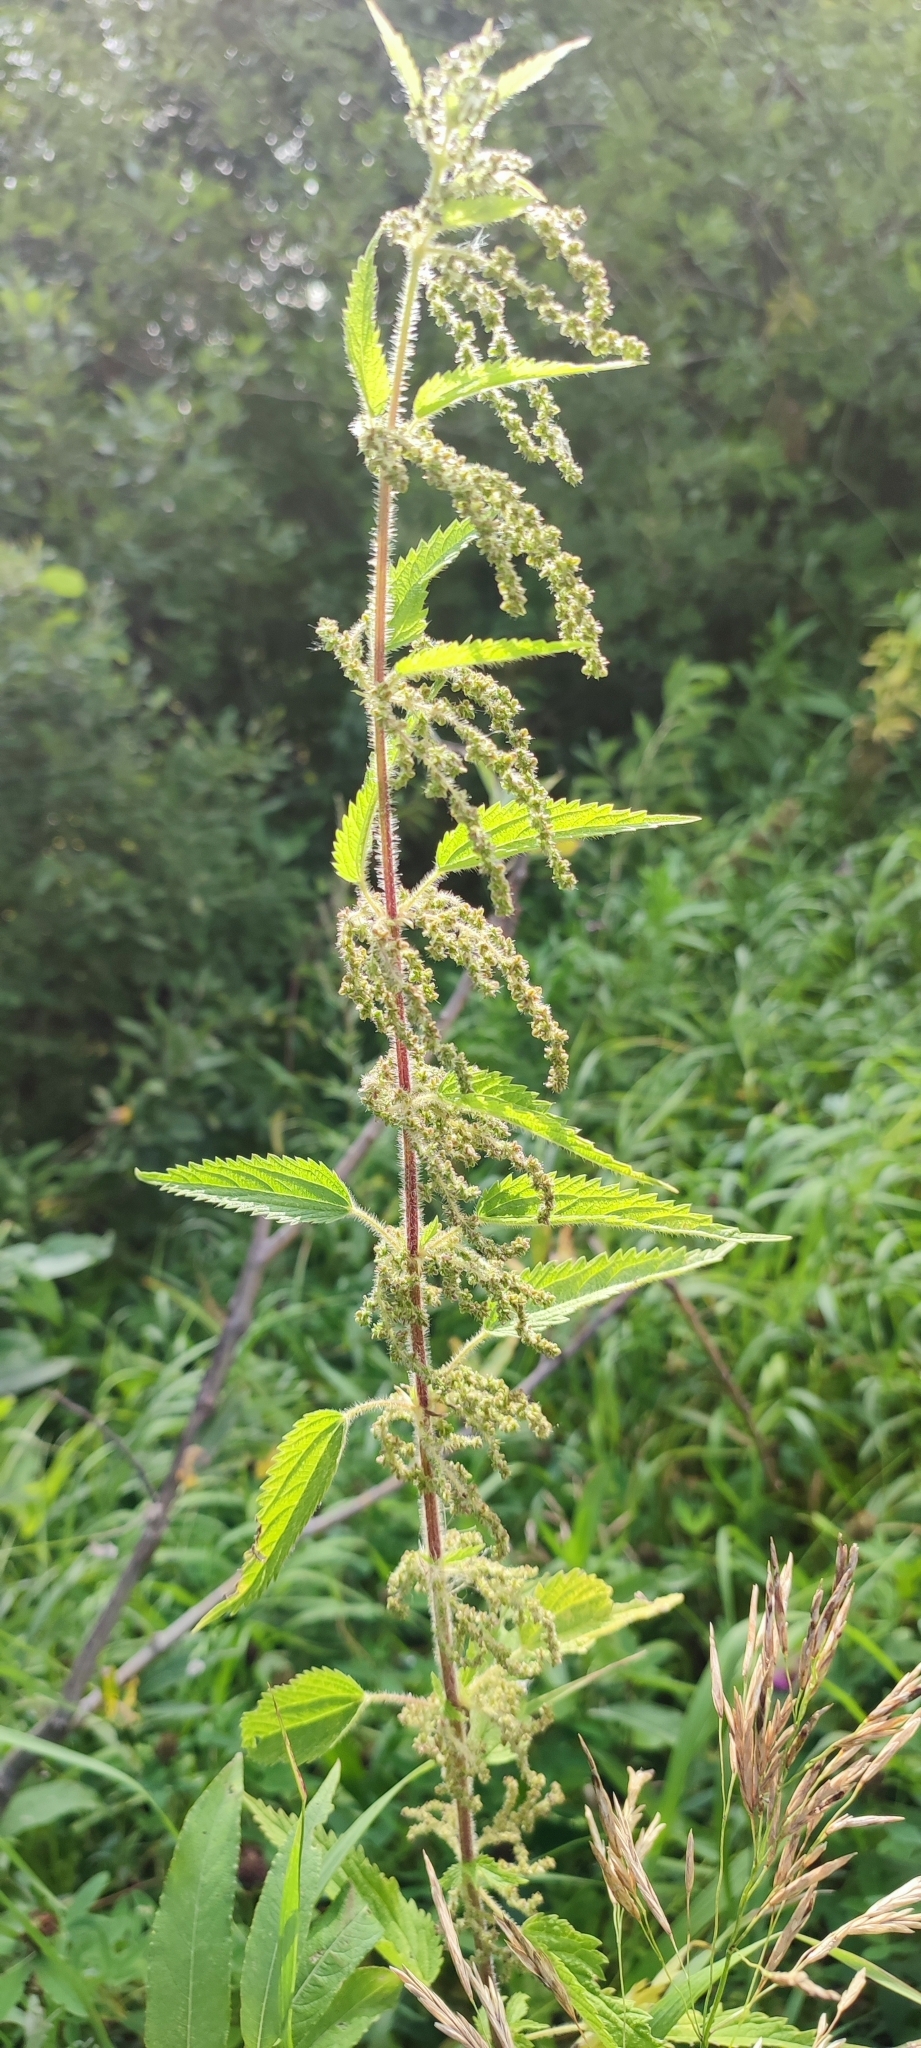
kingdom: Plantae
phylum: Tracheophyta
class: Magnoliopsida
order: Rosales
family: Urticaceae
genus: Urtica
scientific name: Urtica dioica
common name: Common nettle
